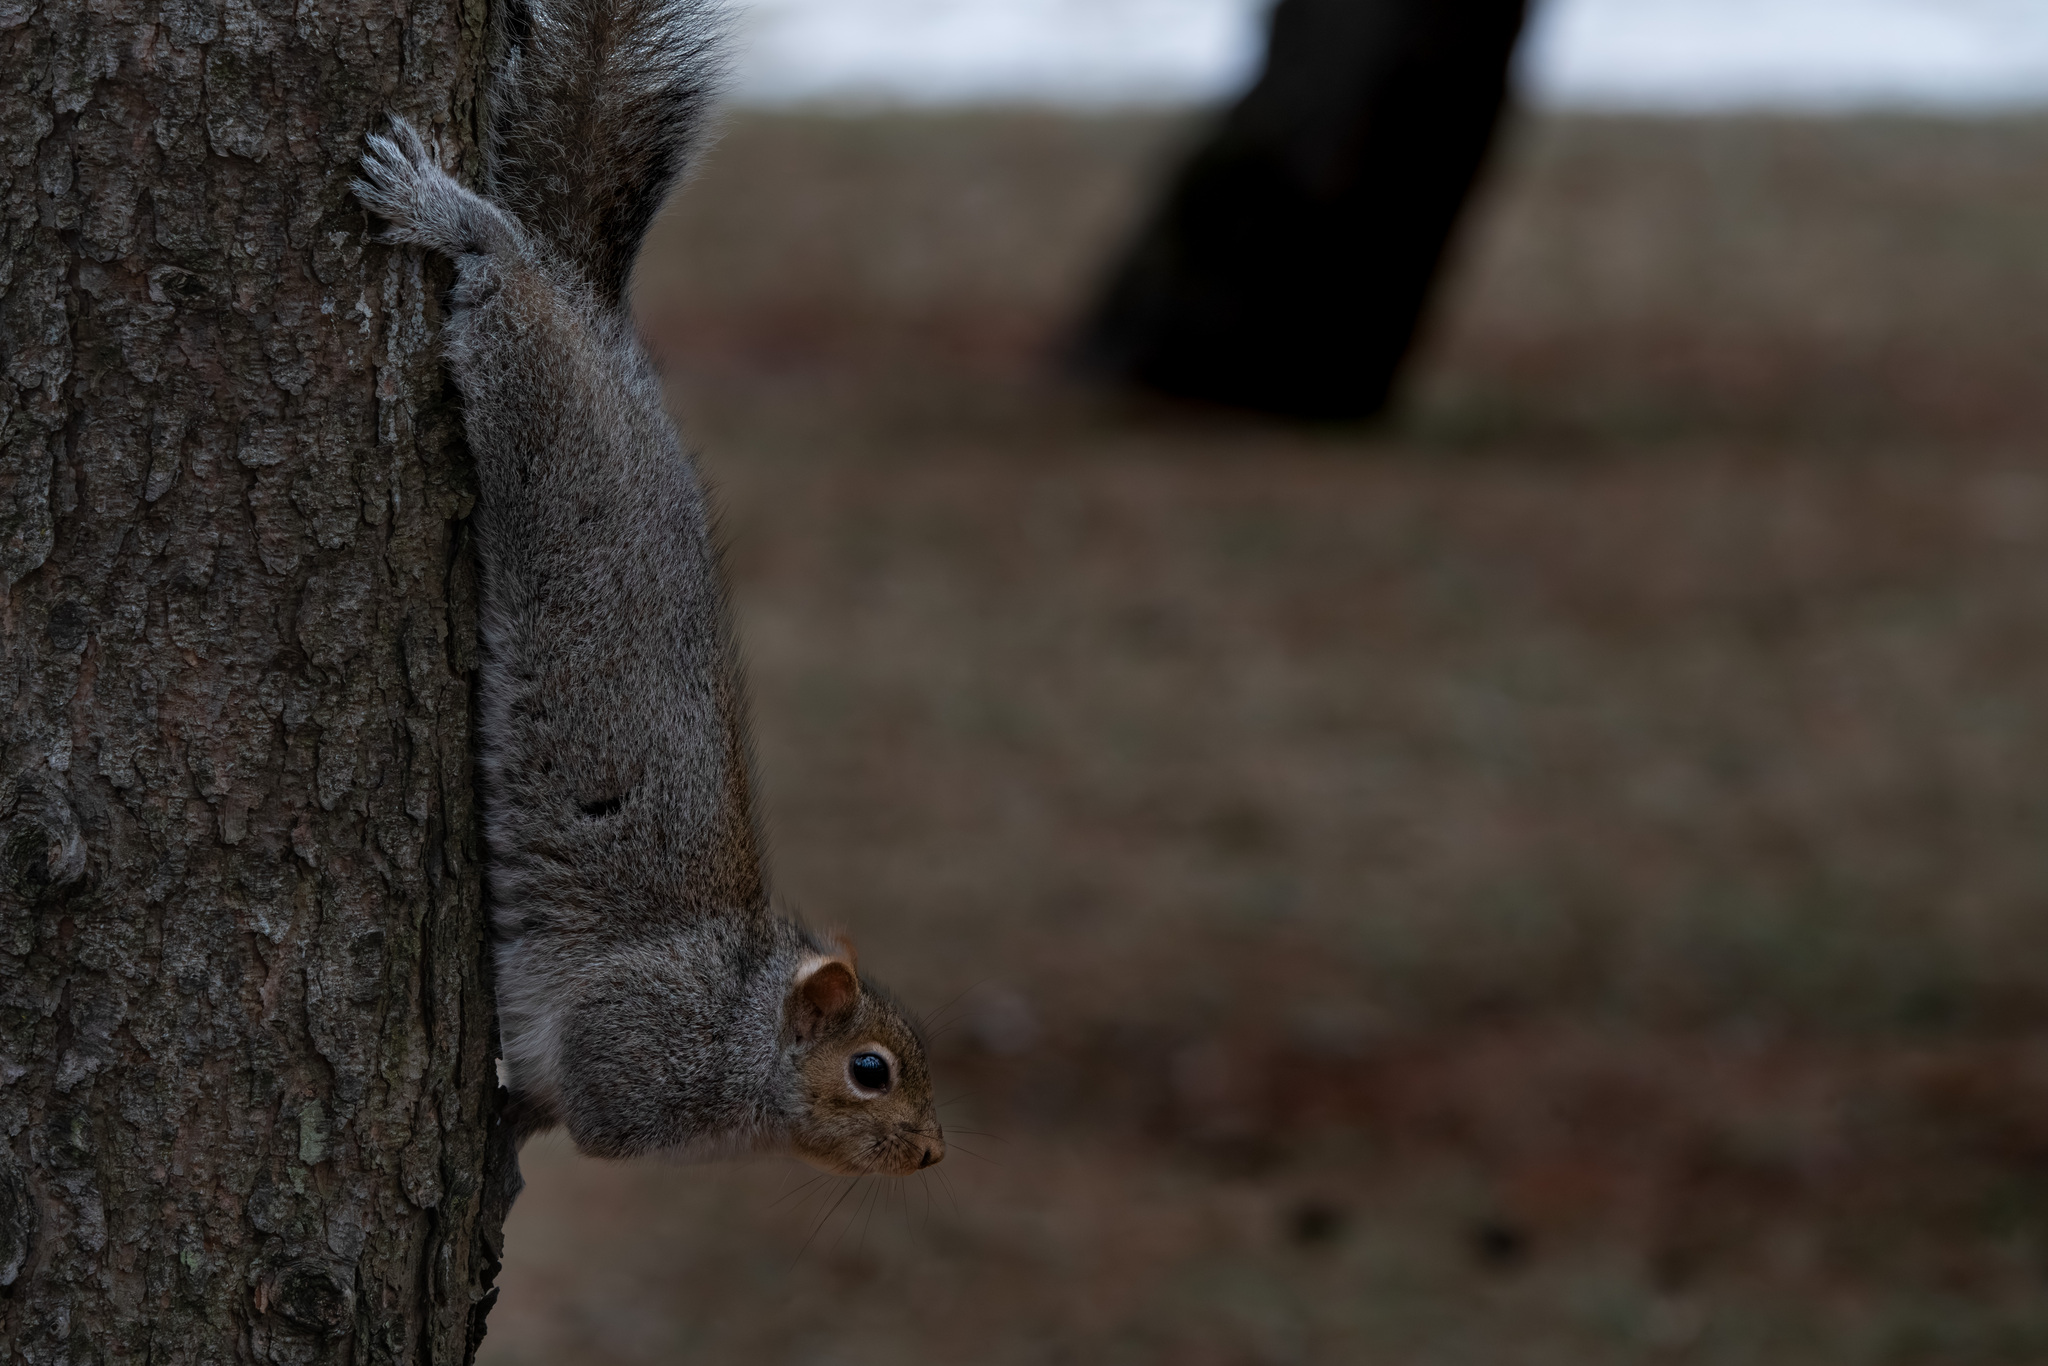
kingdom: Animalia
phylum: Chordata
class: Mammalia
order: Rodentia
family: Sciuridae
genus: Sciurus
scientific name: Sciurus carolinensis
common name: Eastern gray squirrel
